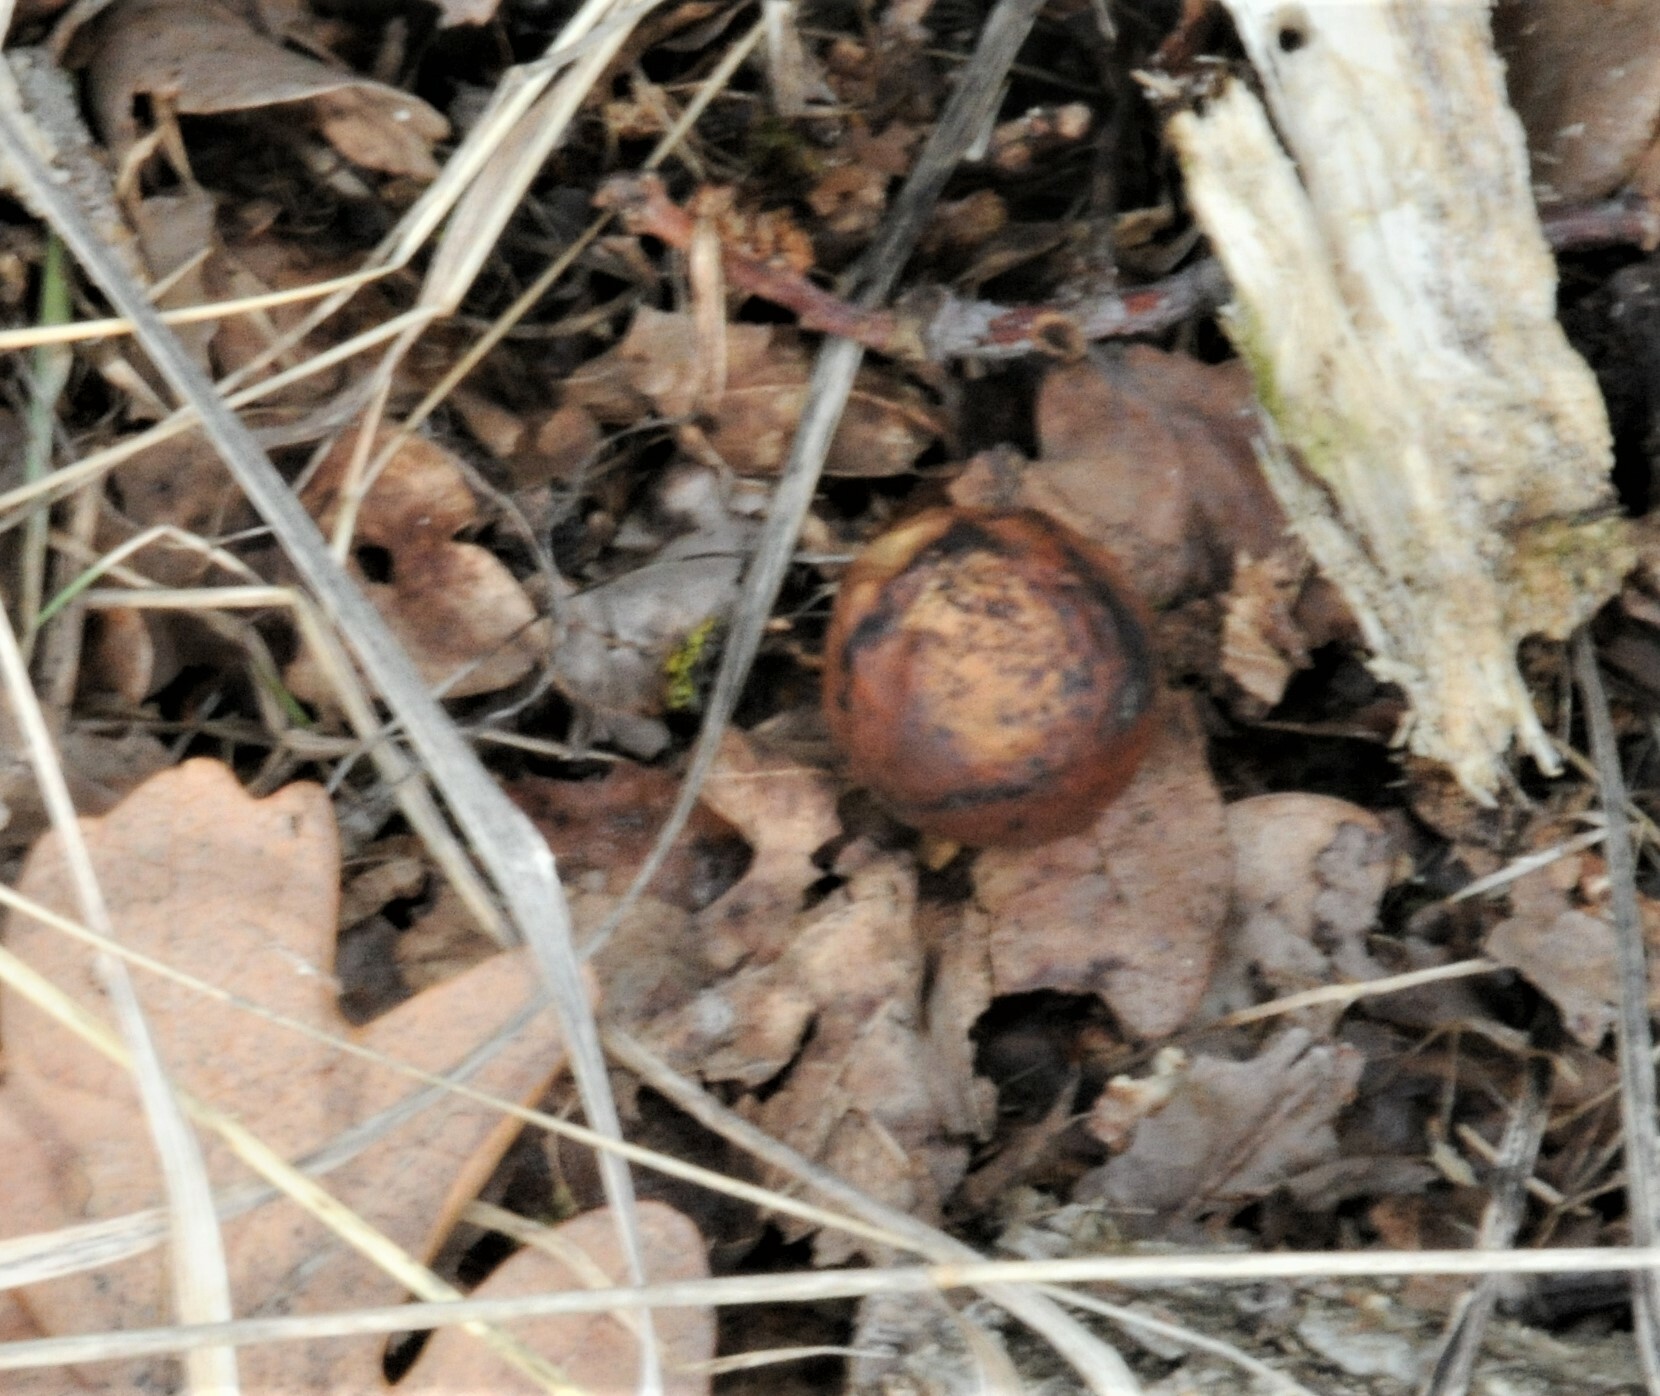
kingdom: Animalia
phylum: Arthropoda
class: Insecta
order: Hymenoptera
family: Cynipidae
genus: Cynips
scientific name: Cynips quercusfolii
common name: Cherry gall
